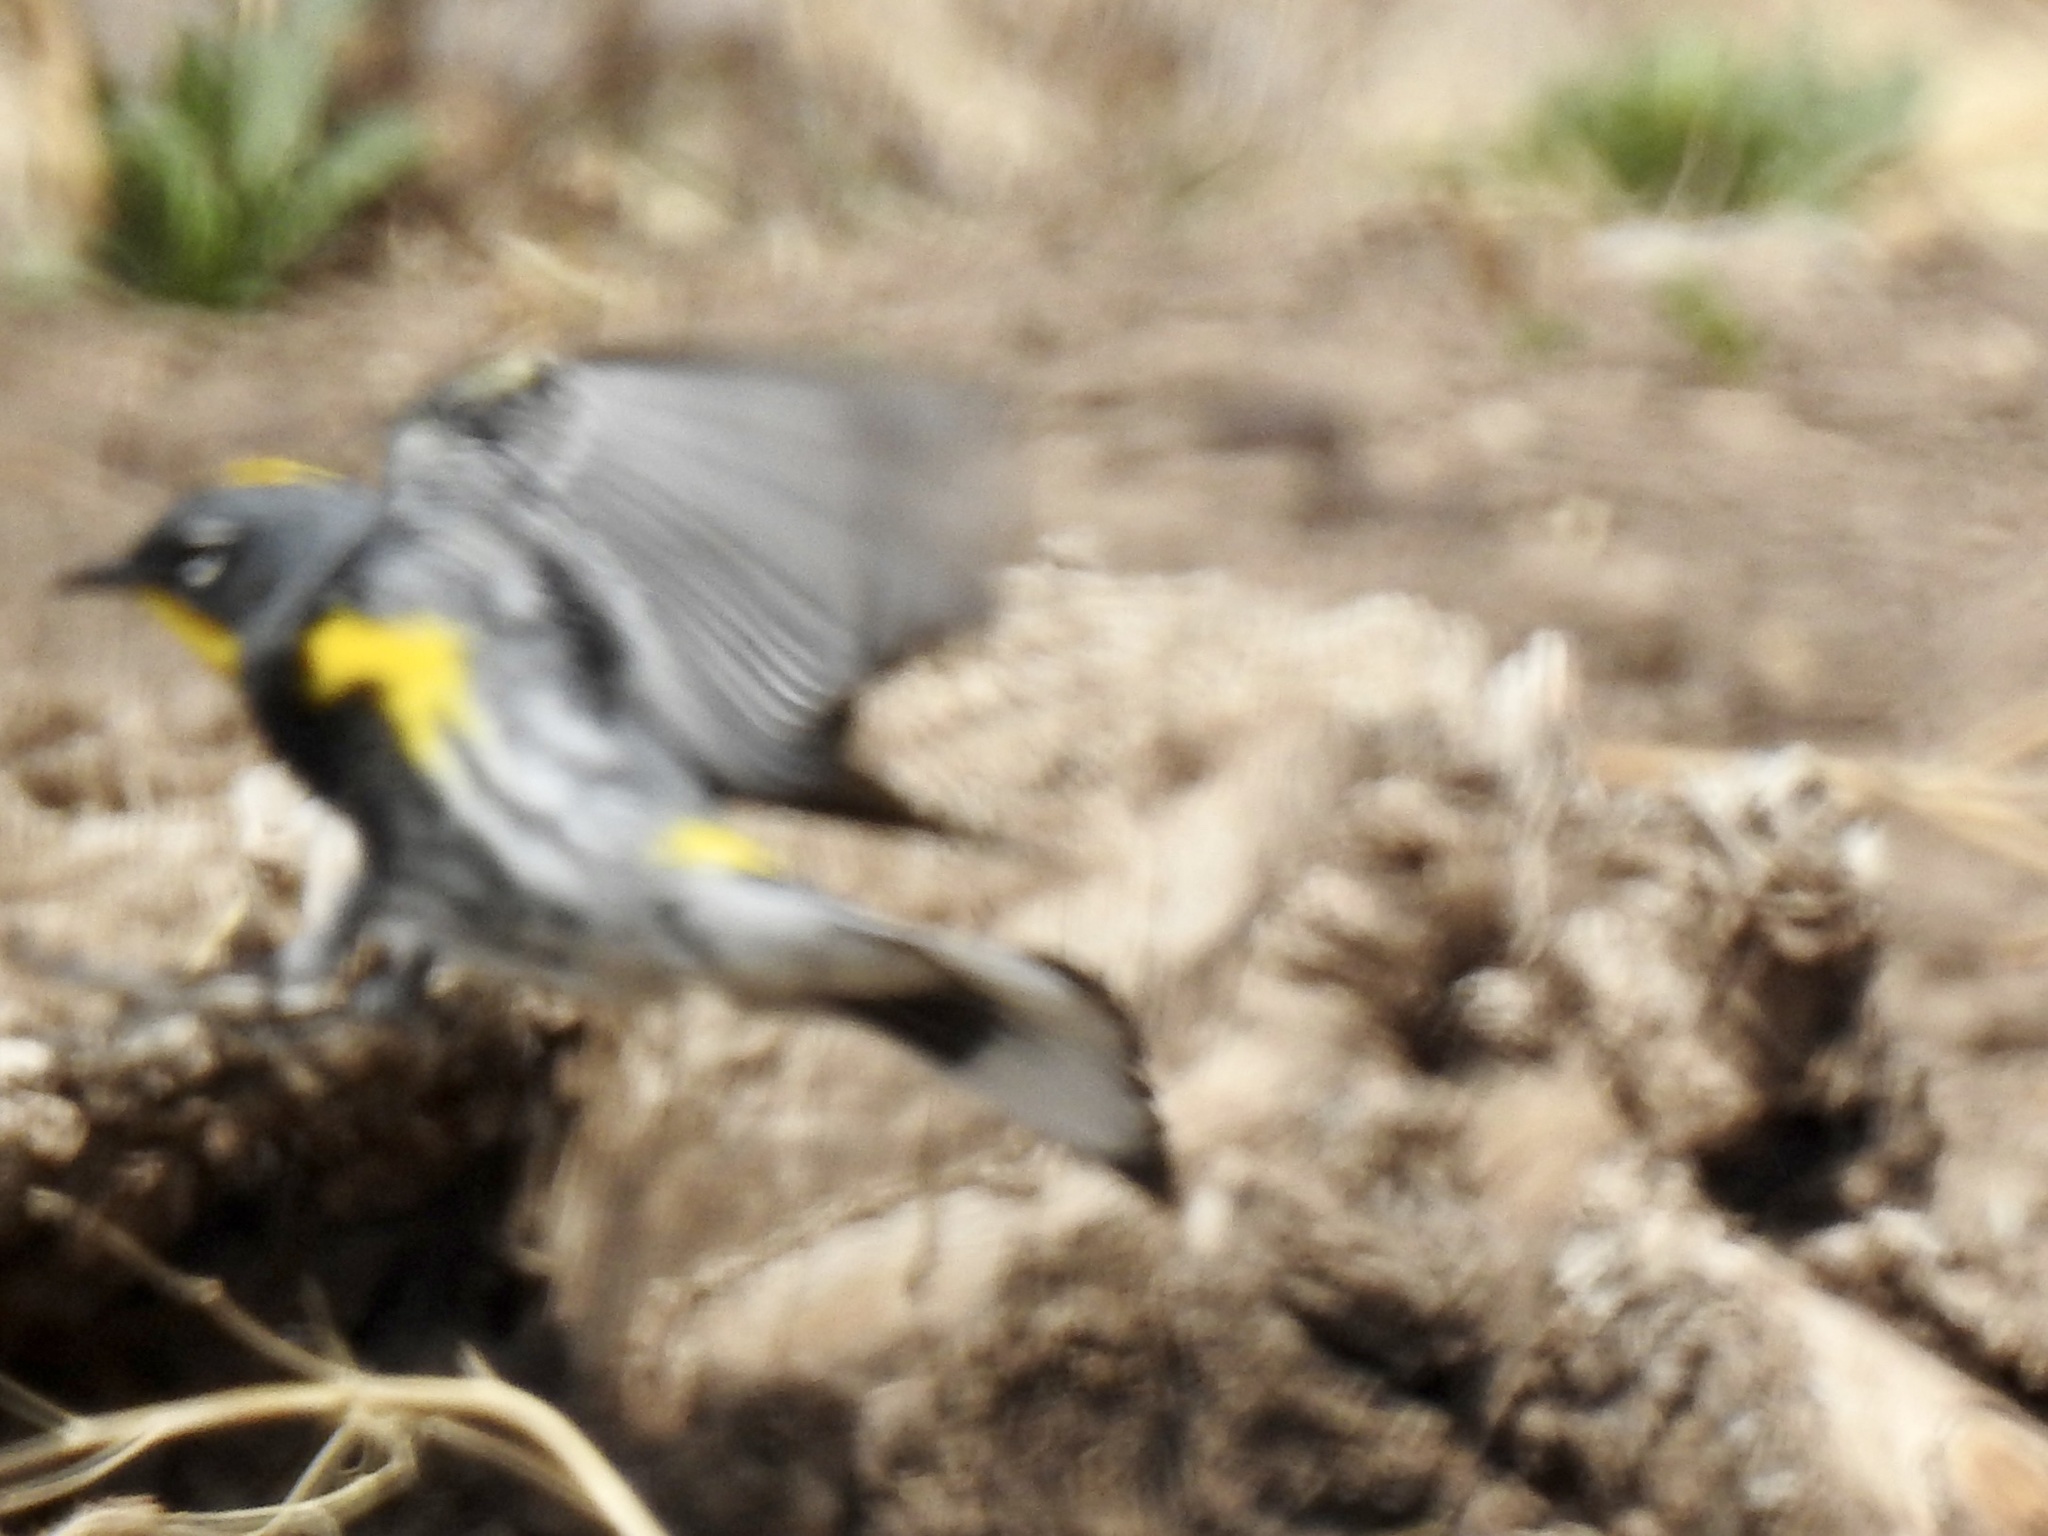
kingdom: Animalia
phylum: Chordata
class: Aves
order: Passeriformes
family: Parulidae
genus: Setophaga
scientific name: Setophaga coronata
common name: Myrtle warbler
